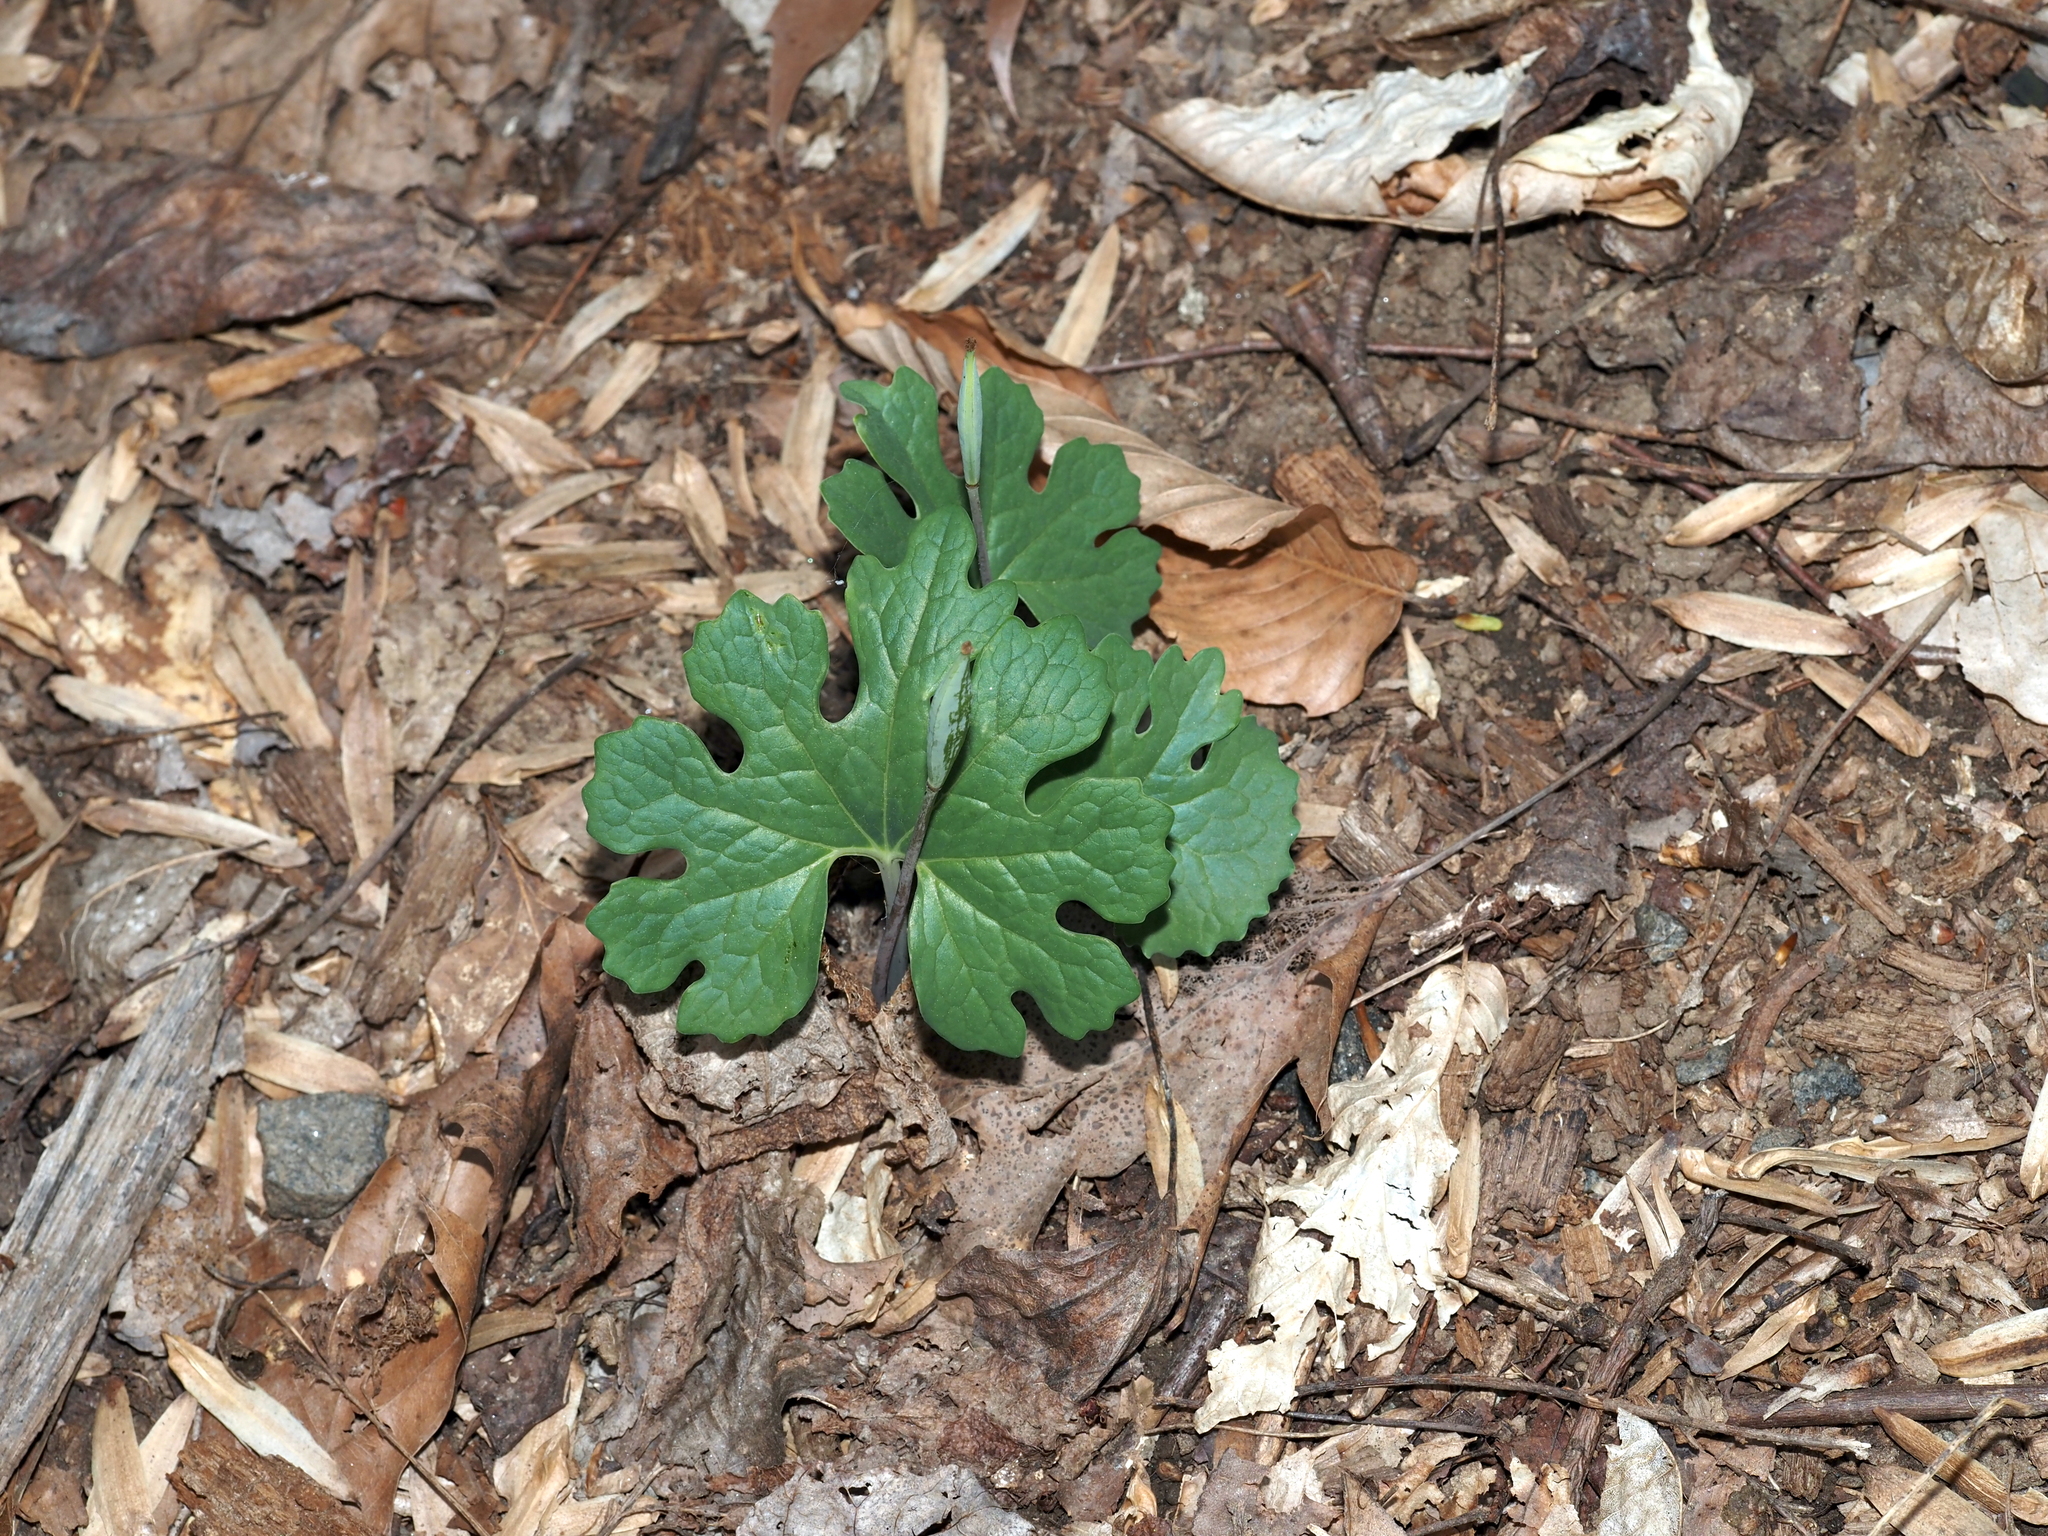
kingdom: Plantae
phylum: Tracheophyta
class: Magnoliopsida
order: Ranunculales
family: Papaveraceae
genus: Sanguinaria
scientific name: Sanguinaria canadensis
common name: Bloodroot
